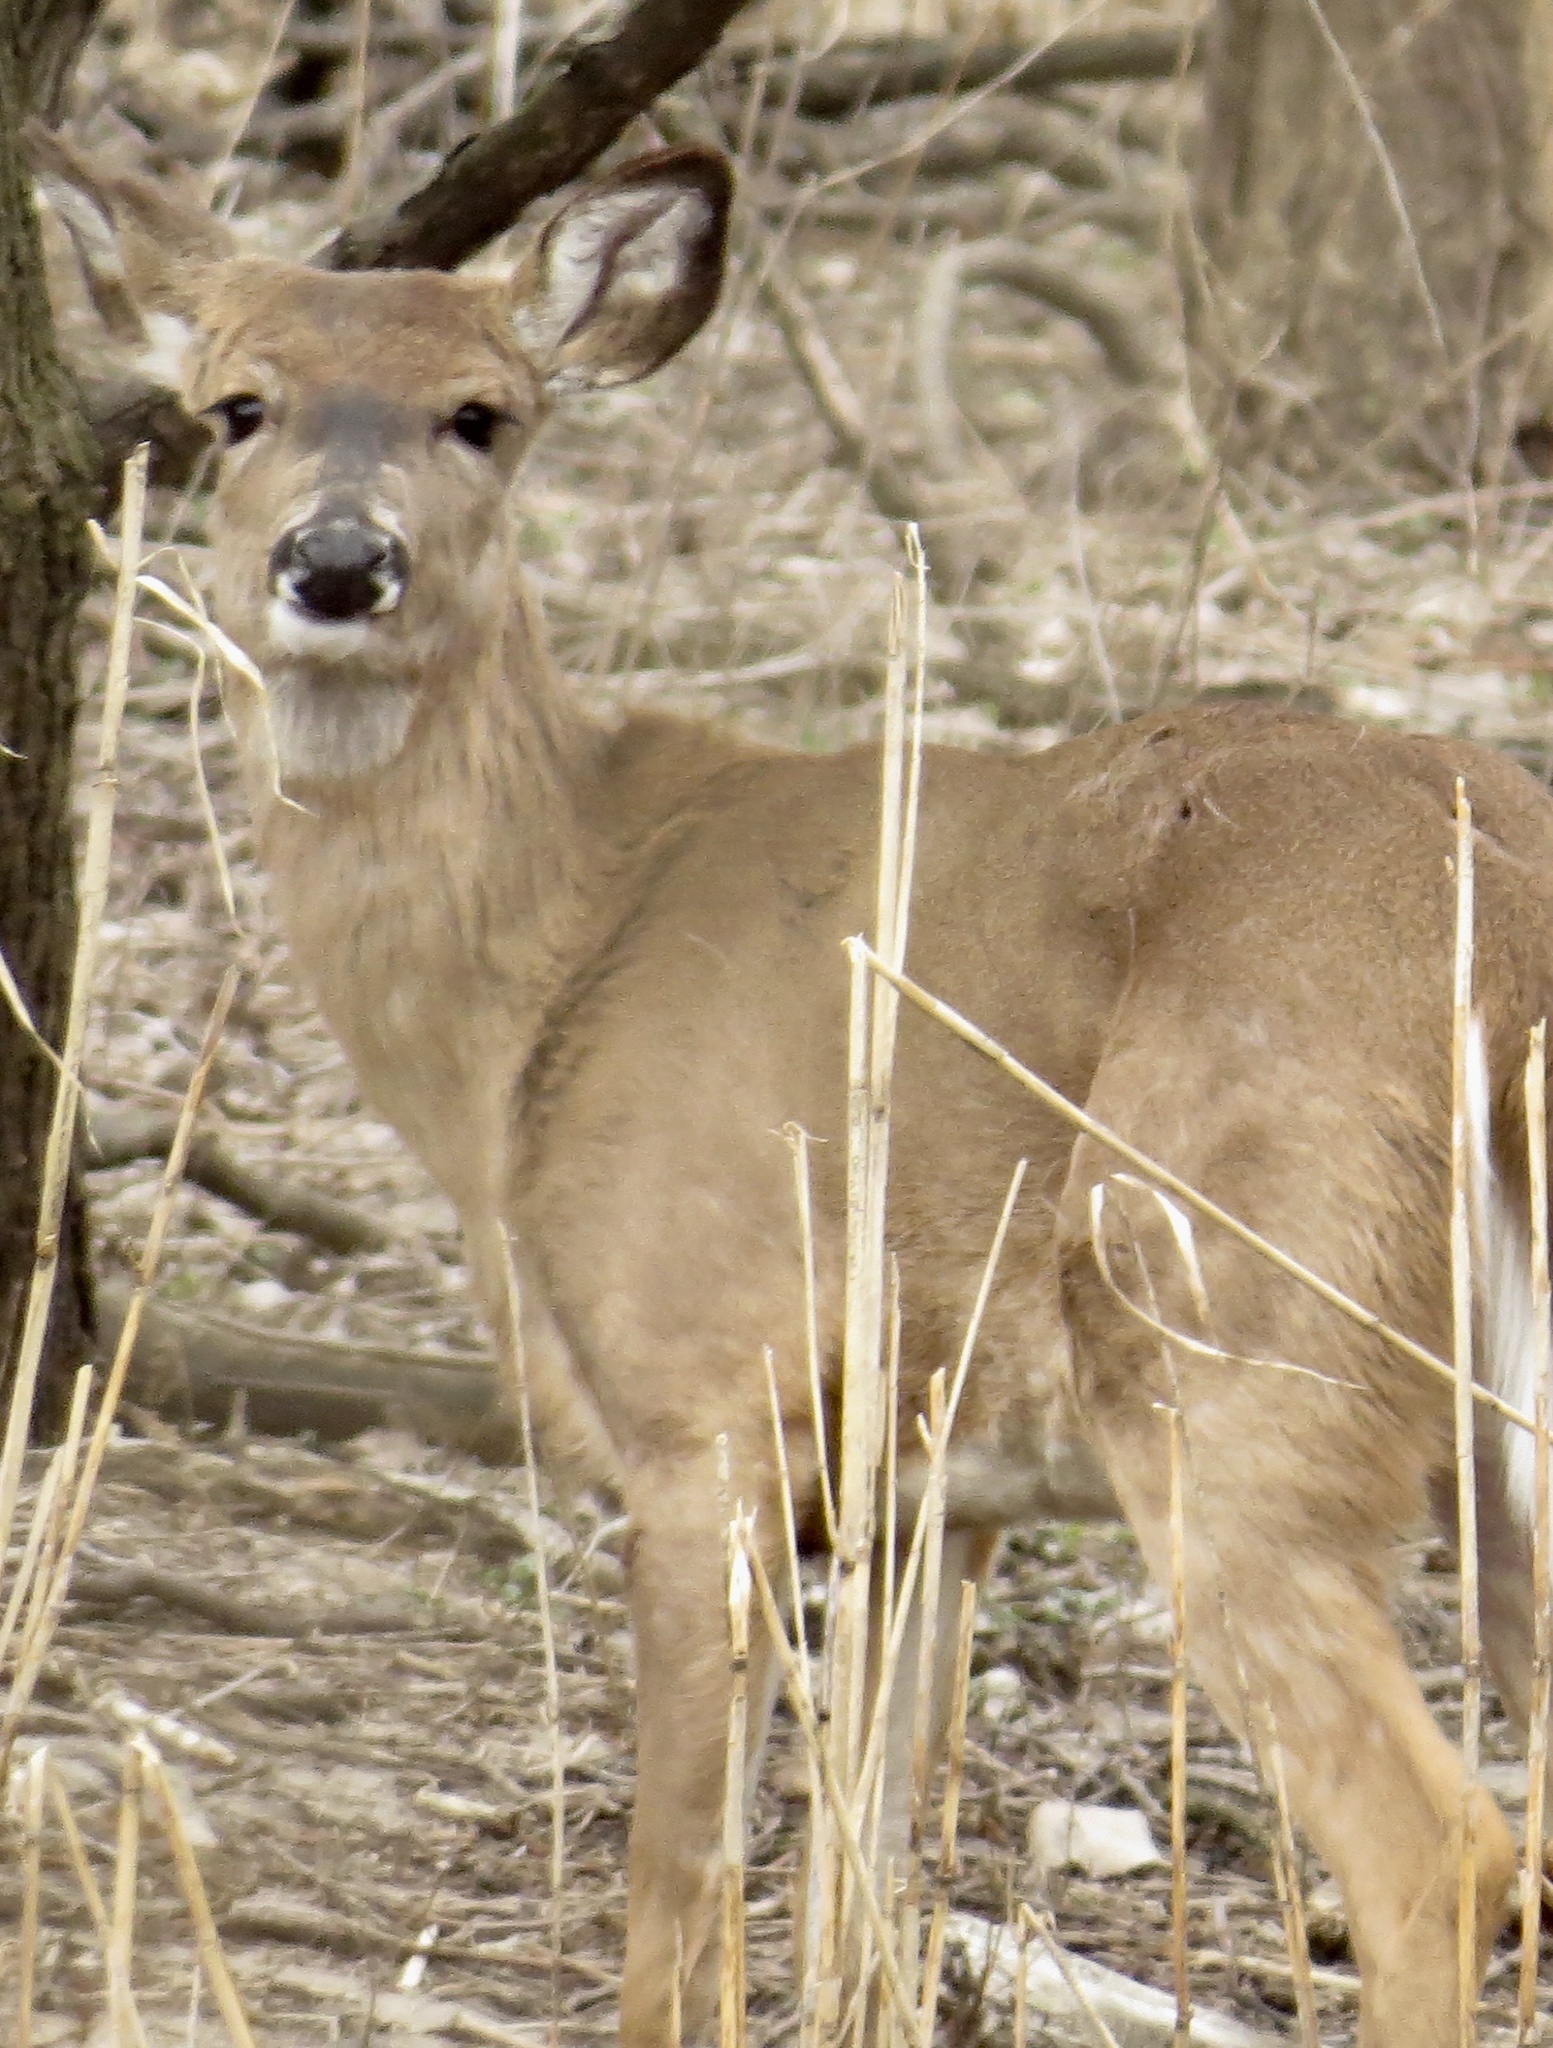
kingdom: Animalia
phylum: Chordata
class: Mammalia
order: Artiodactyla
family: Cervidae
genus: Odocoileus
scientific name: Odocoileus virginianus
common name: White-tailed deer
